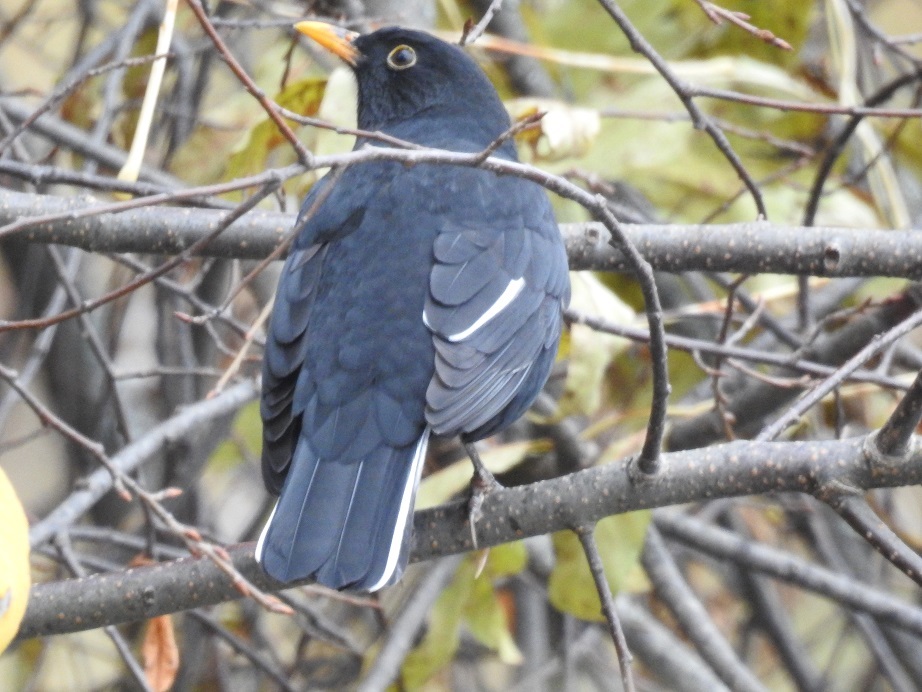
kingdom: Animalia
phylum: Chordata
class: Aves
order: Passeriformes
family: Turdidae
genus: Turdus
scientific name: Turdus merula
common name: Common blackbird
